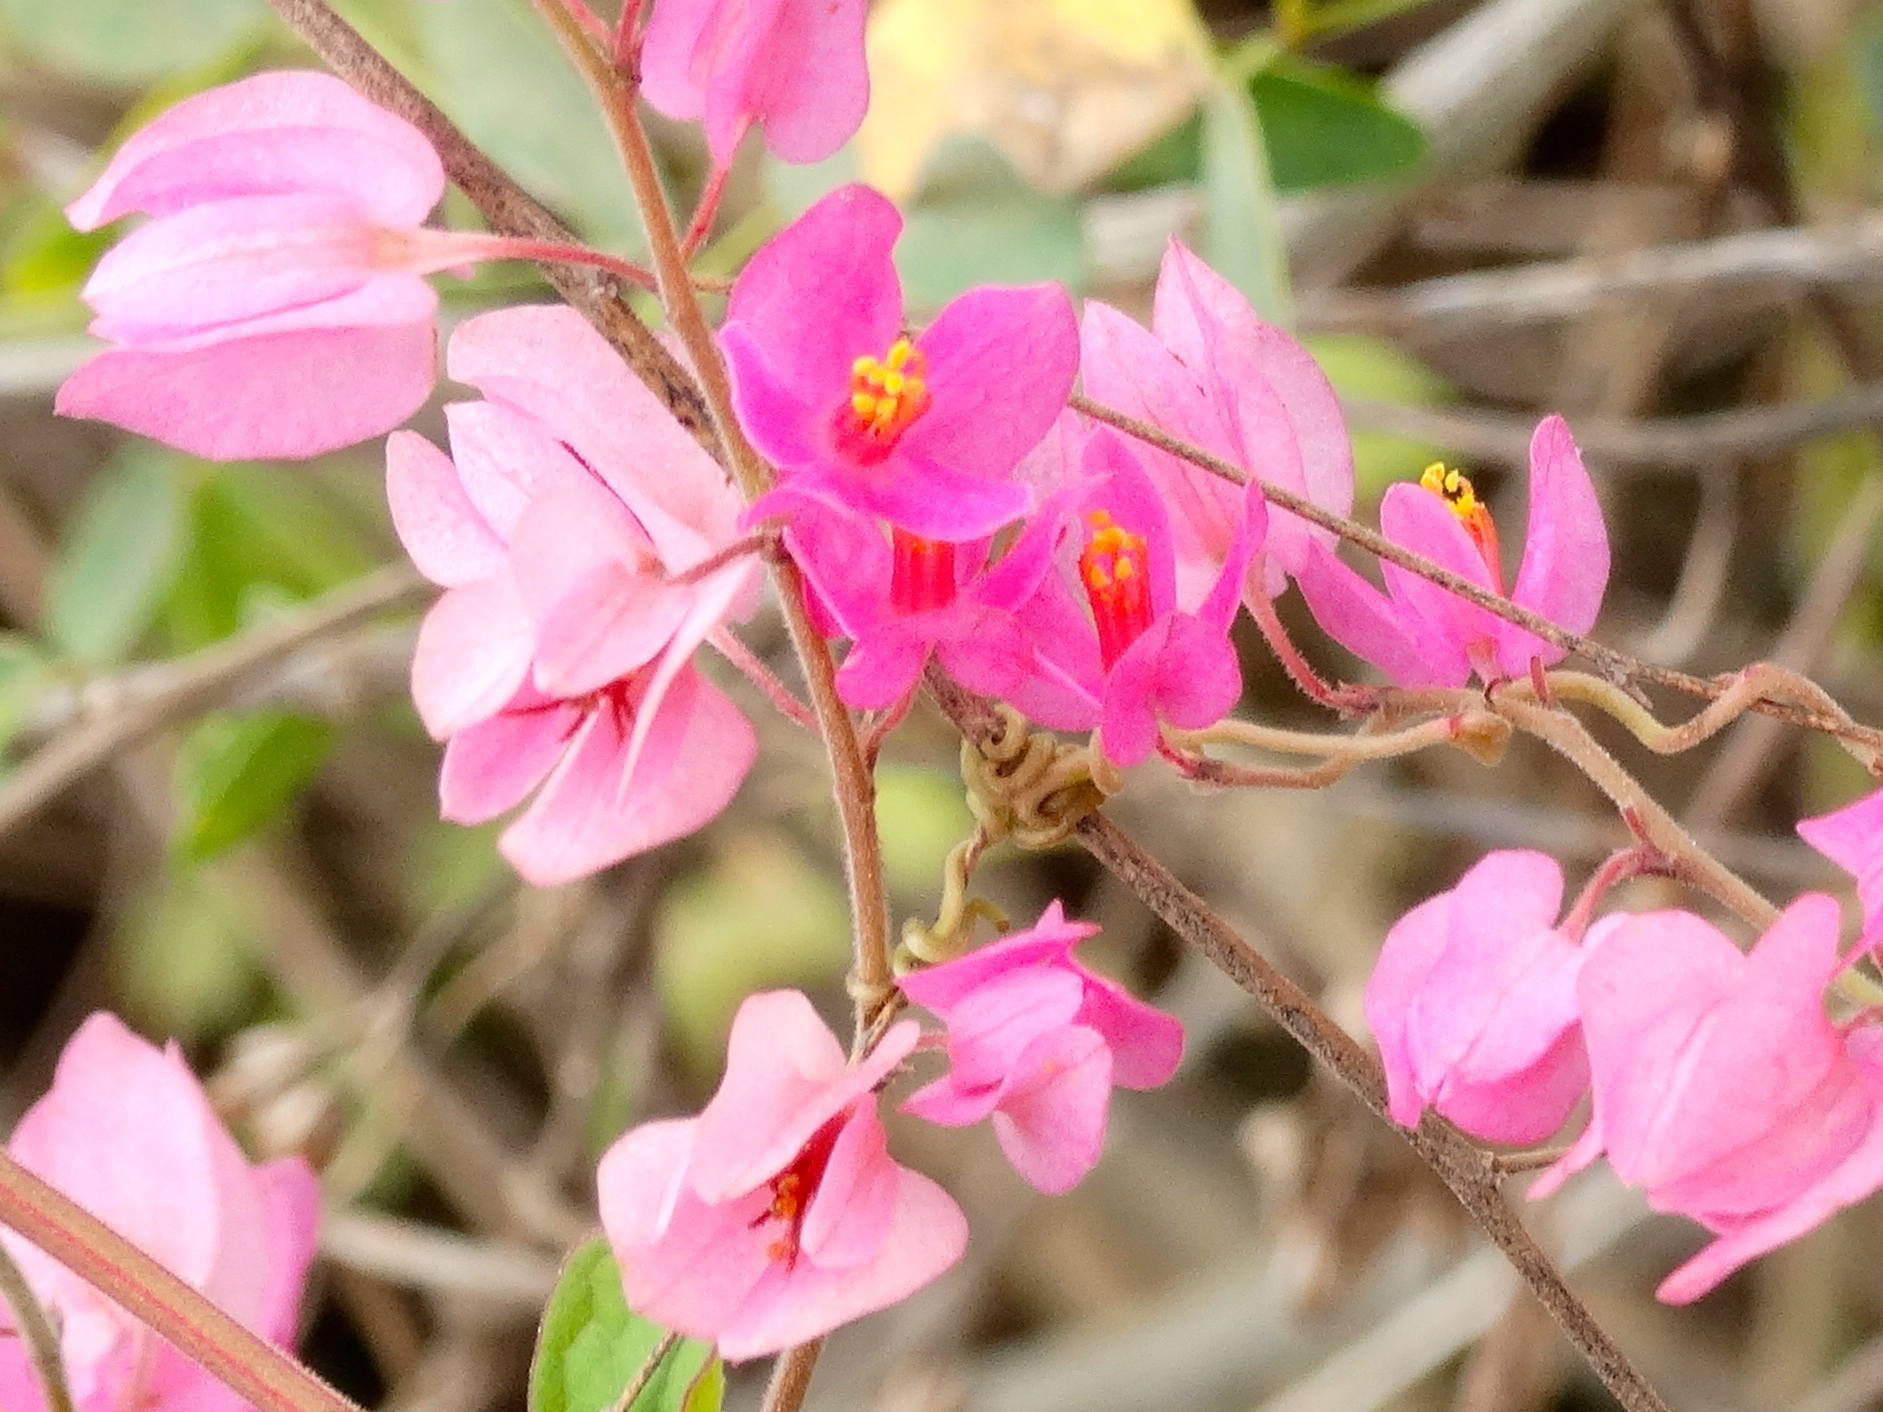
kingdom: Plantae
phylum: Tracheophyta
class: Magnoliopsida
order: Caryophyllales
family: Polygonaceae
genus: Antigonon
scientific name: Antigonon leptopus
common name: Coral vine
